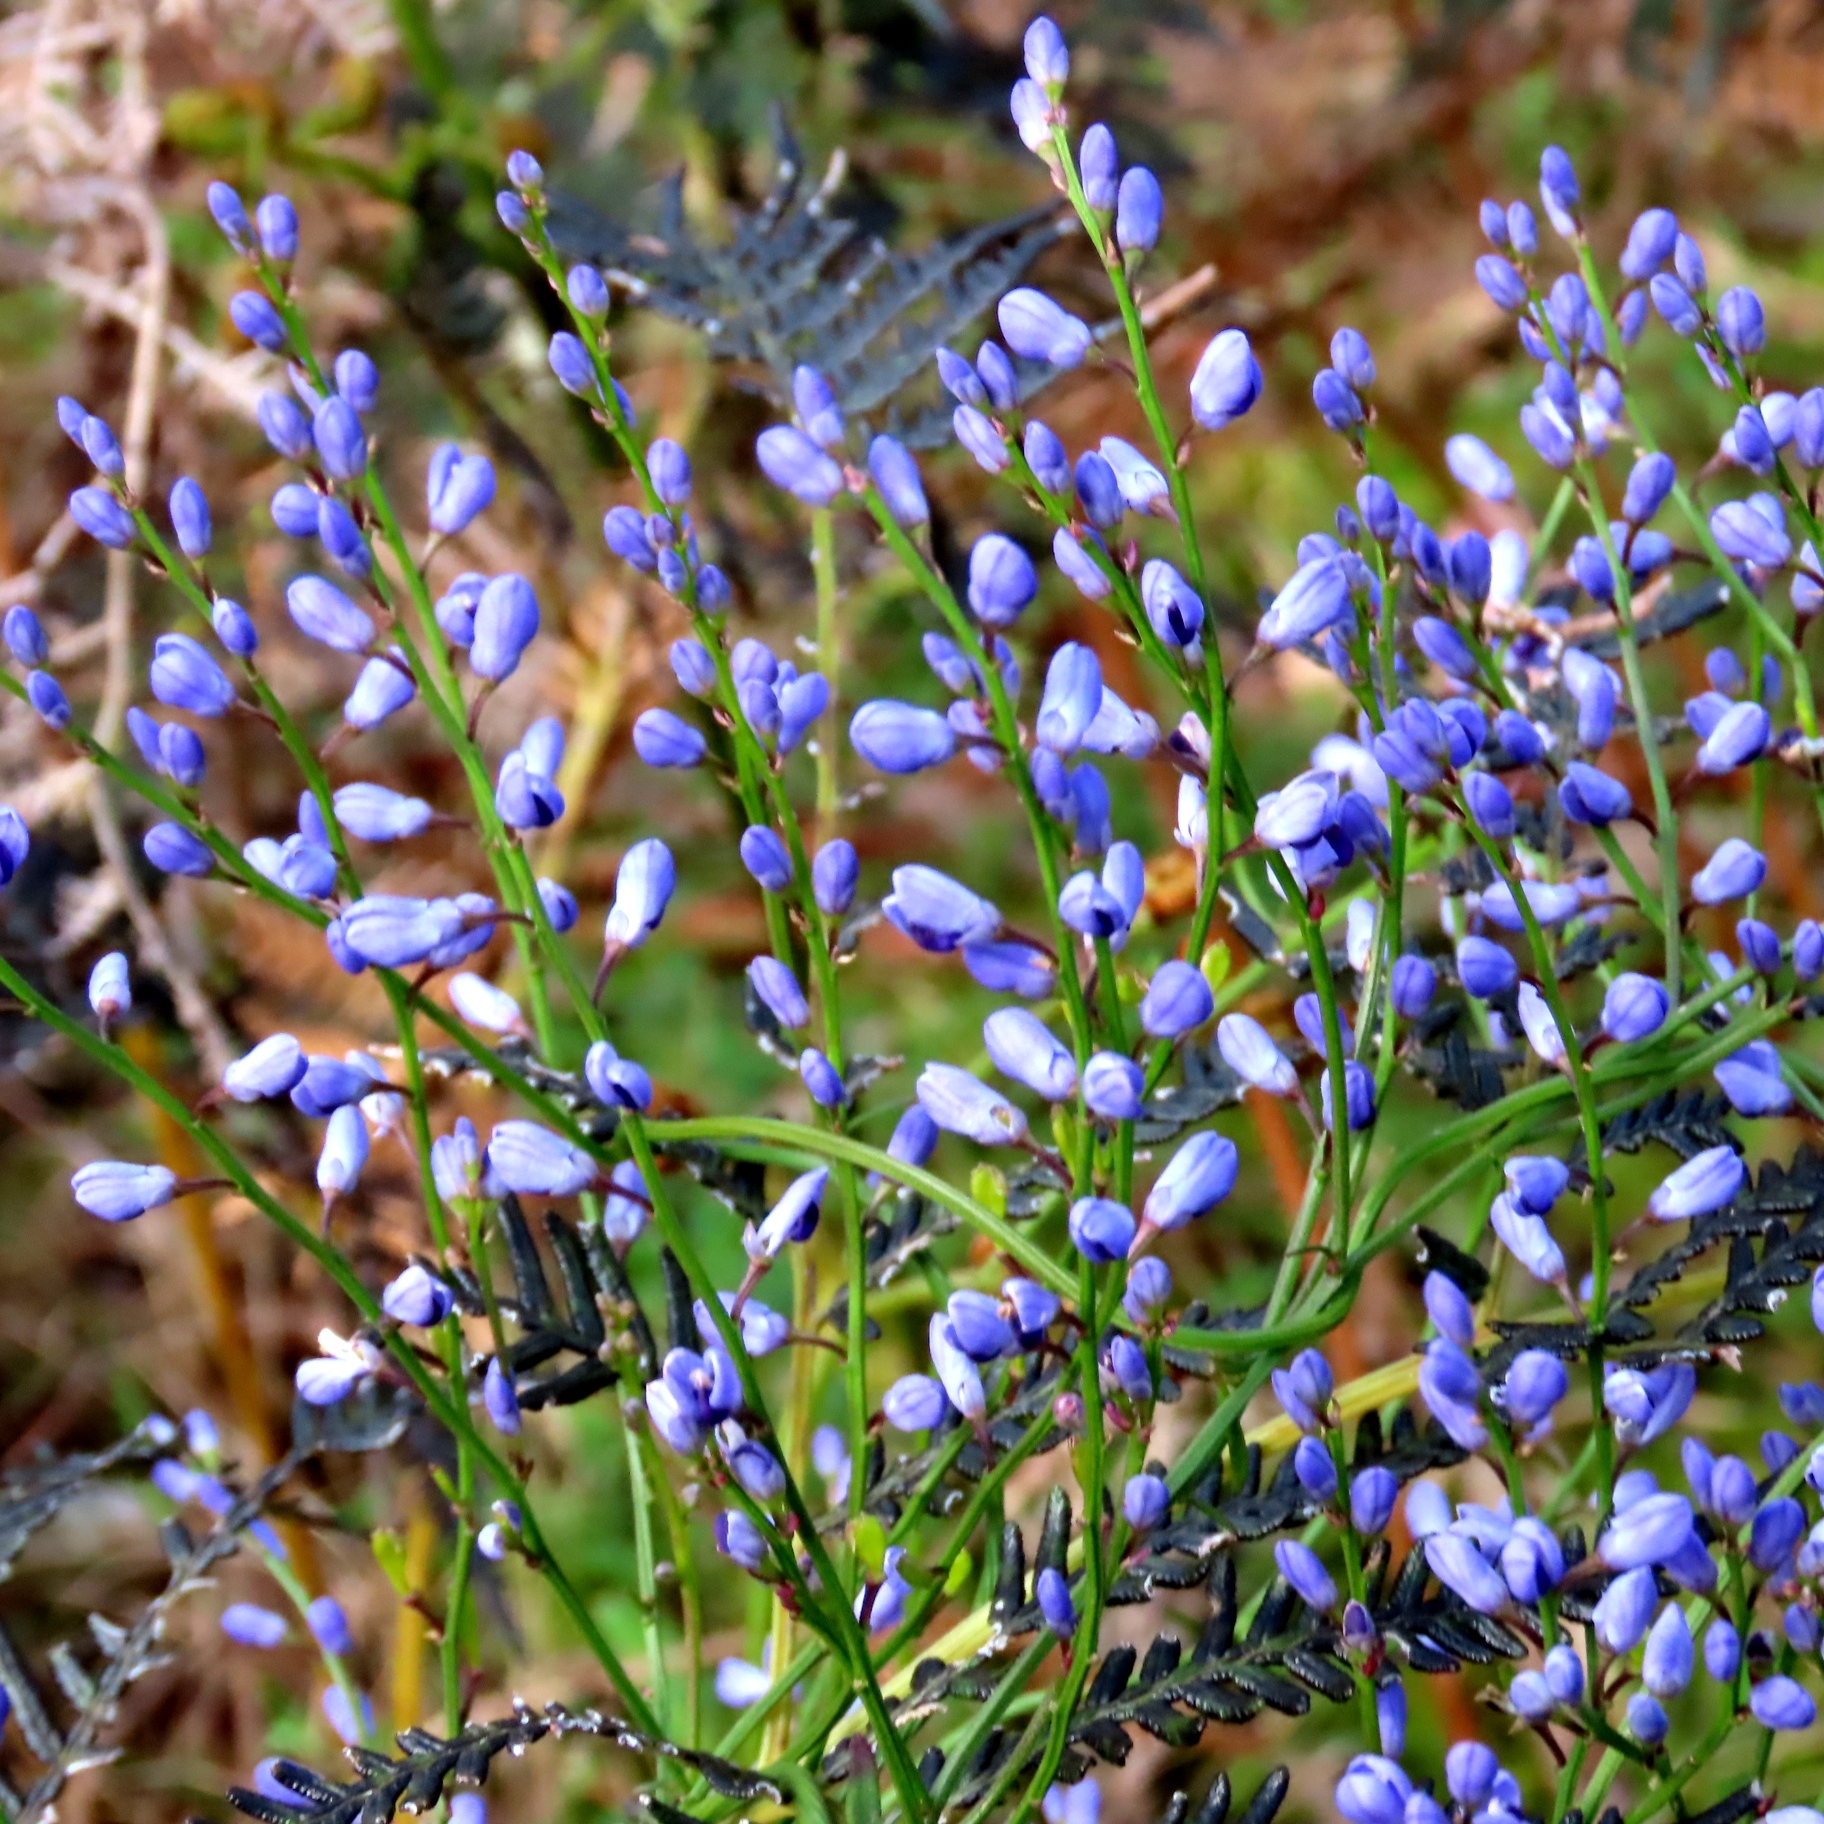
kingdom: Plantae
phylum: Tracheophyta
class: Magnoliopsida
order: Fabales
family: Polygalaceae
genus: Comesperma
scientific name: Comesperma volubile
